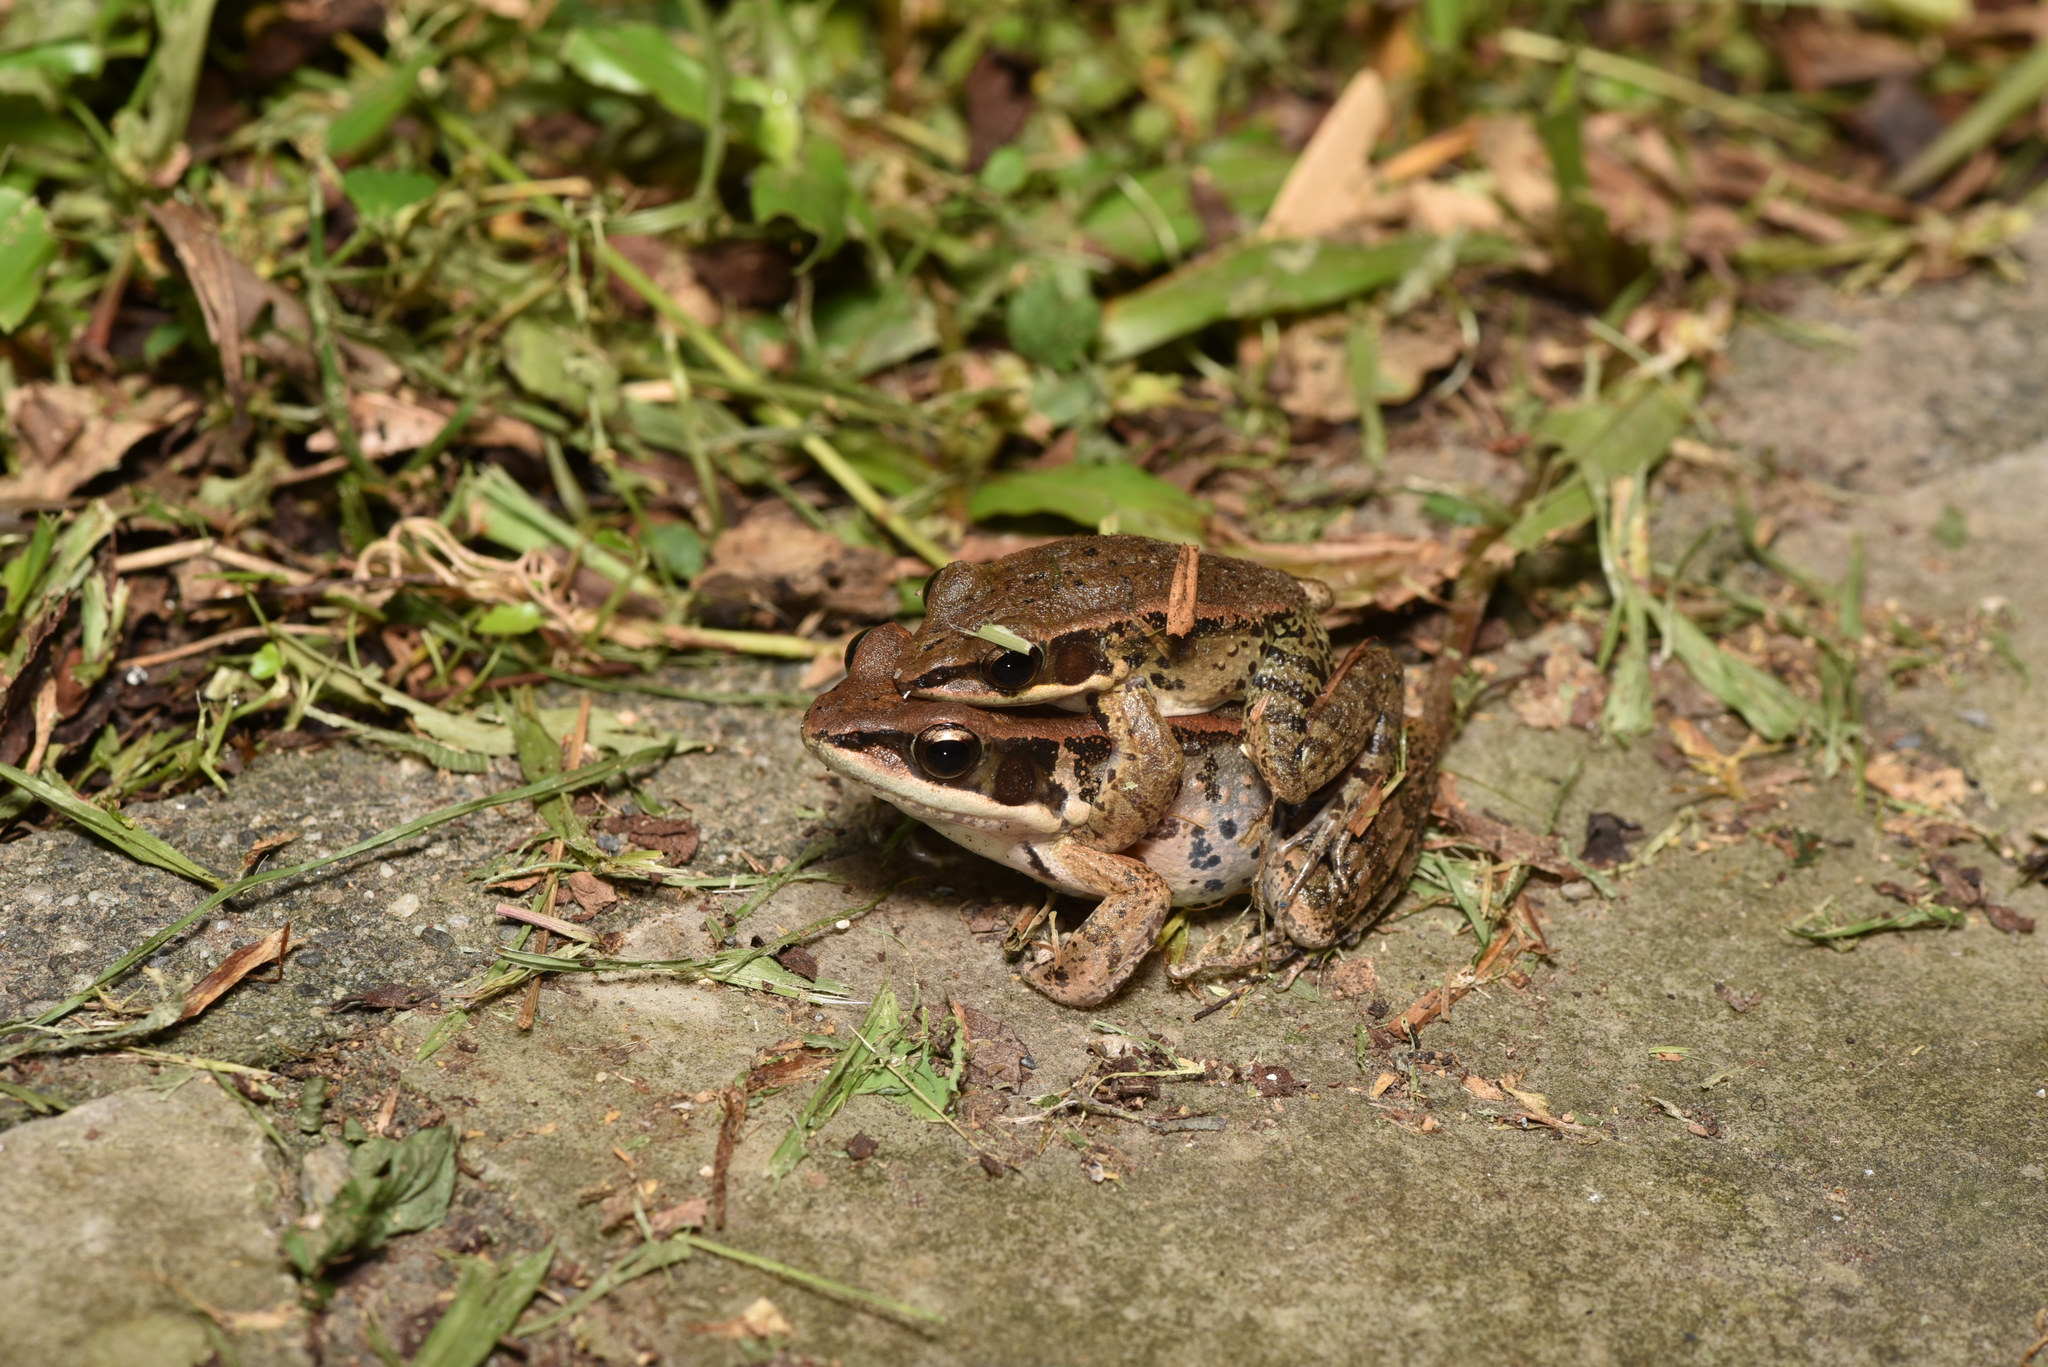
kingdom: Animalia
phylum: Chordata
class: Amphibia
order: Anura
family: Ranidae
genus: Hylarana
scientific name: Hylarana latouchii
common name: Broad-folded frog
